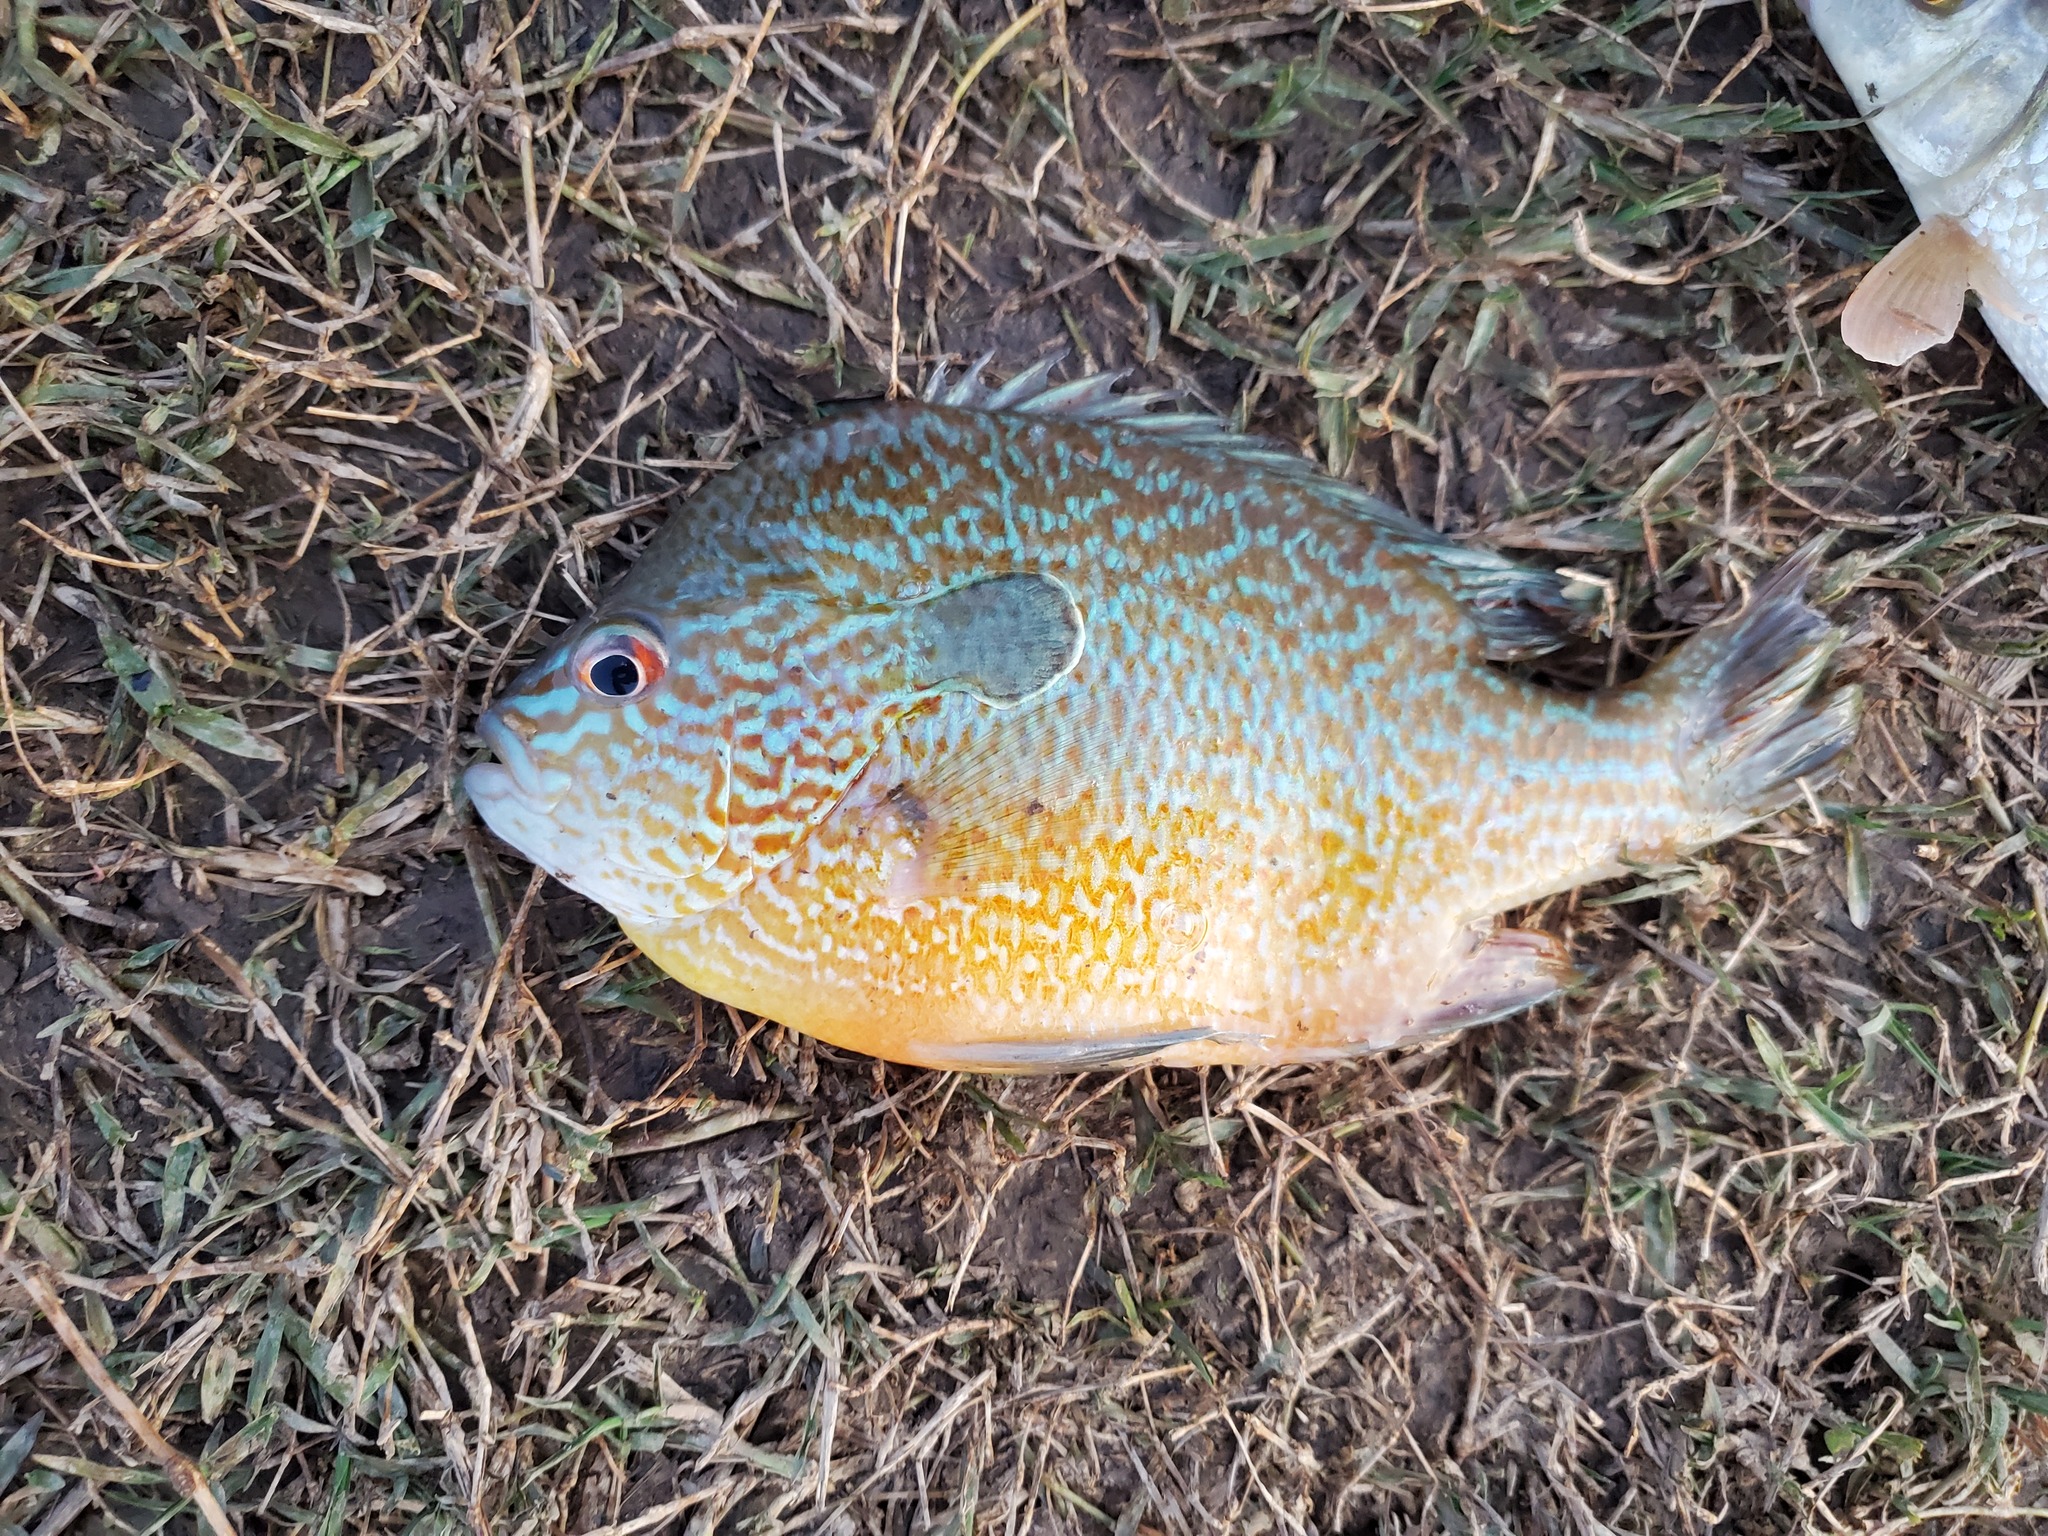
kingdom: Animalia
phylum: Chordata
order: Perciformes
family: Centrarchidae
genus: Lepomis
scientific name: Lepomis megalotis
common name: Longear sunfish
